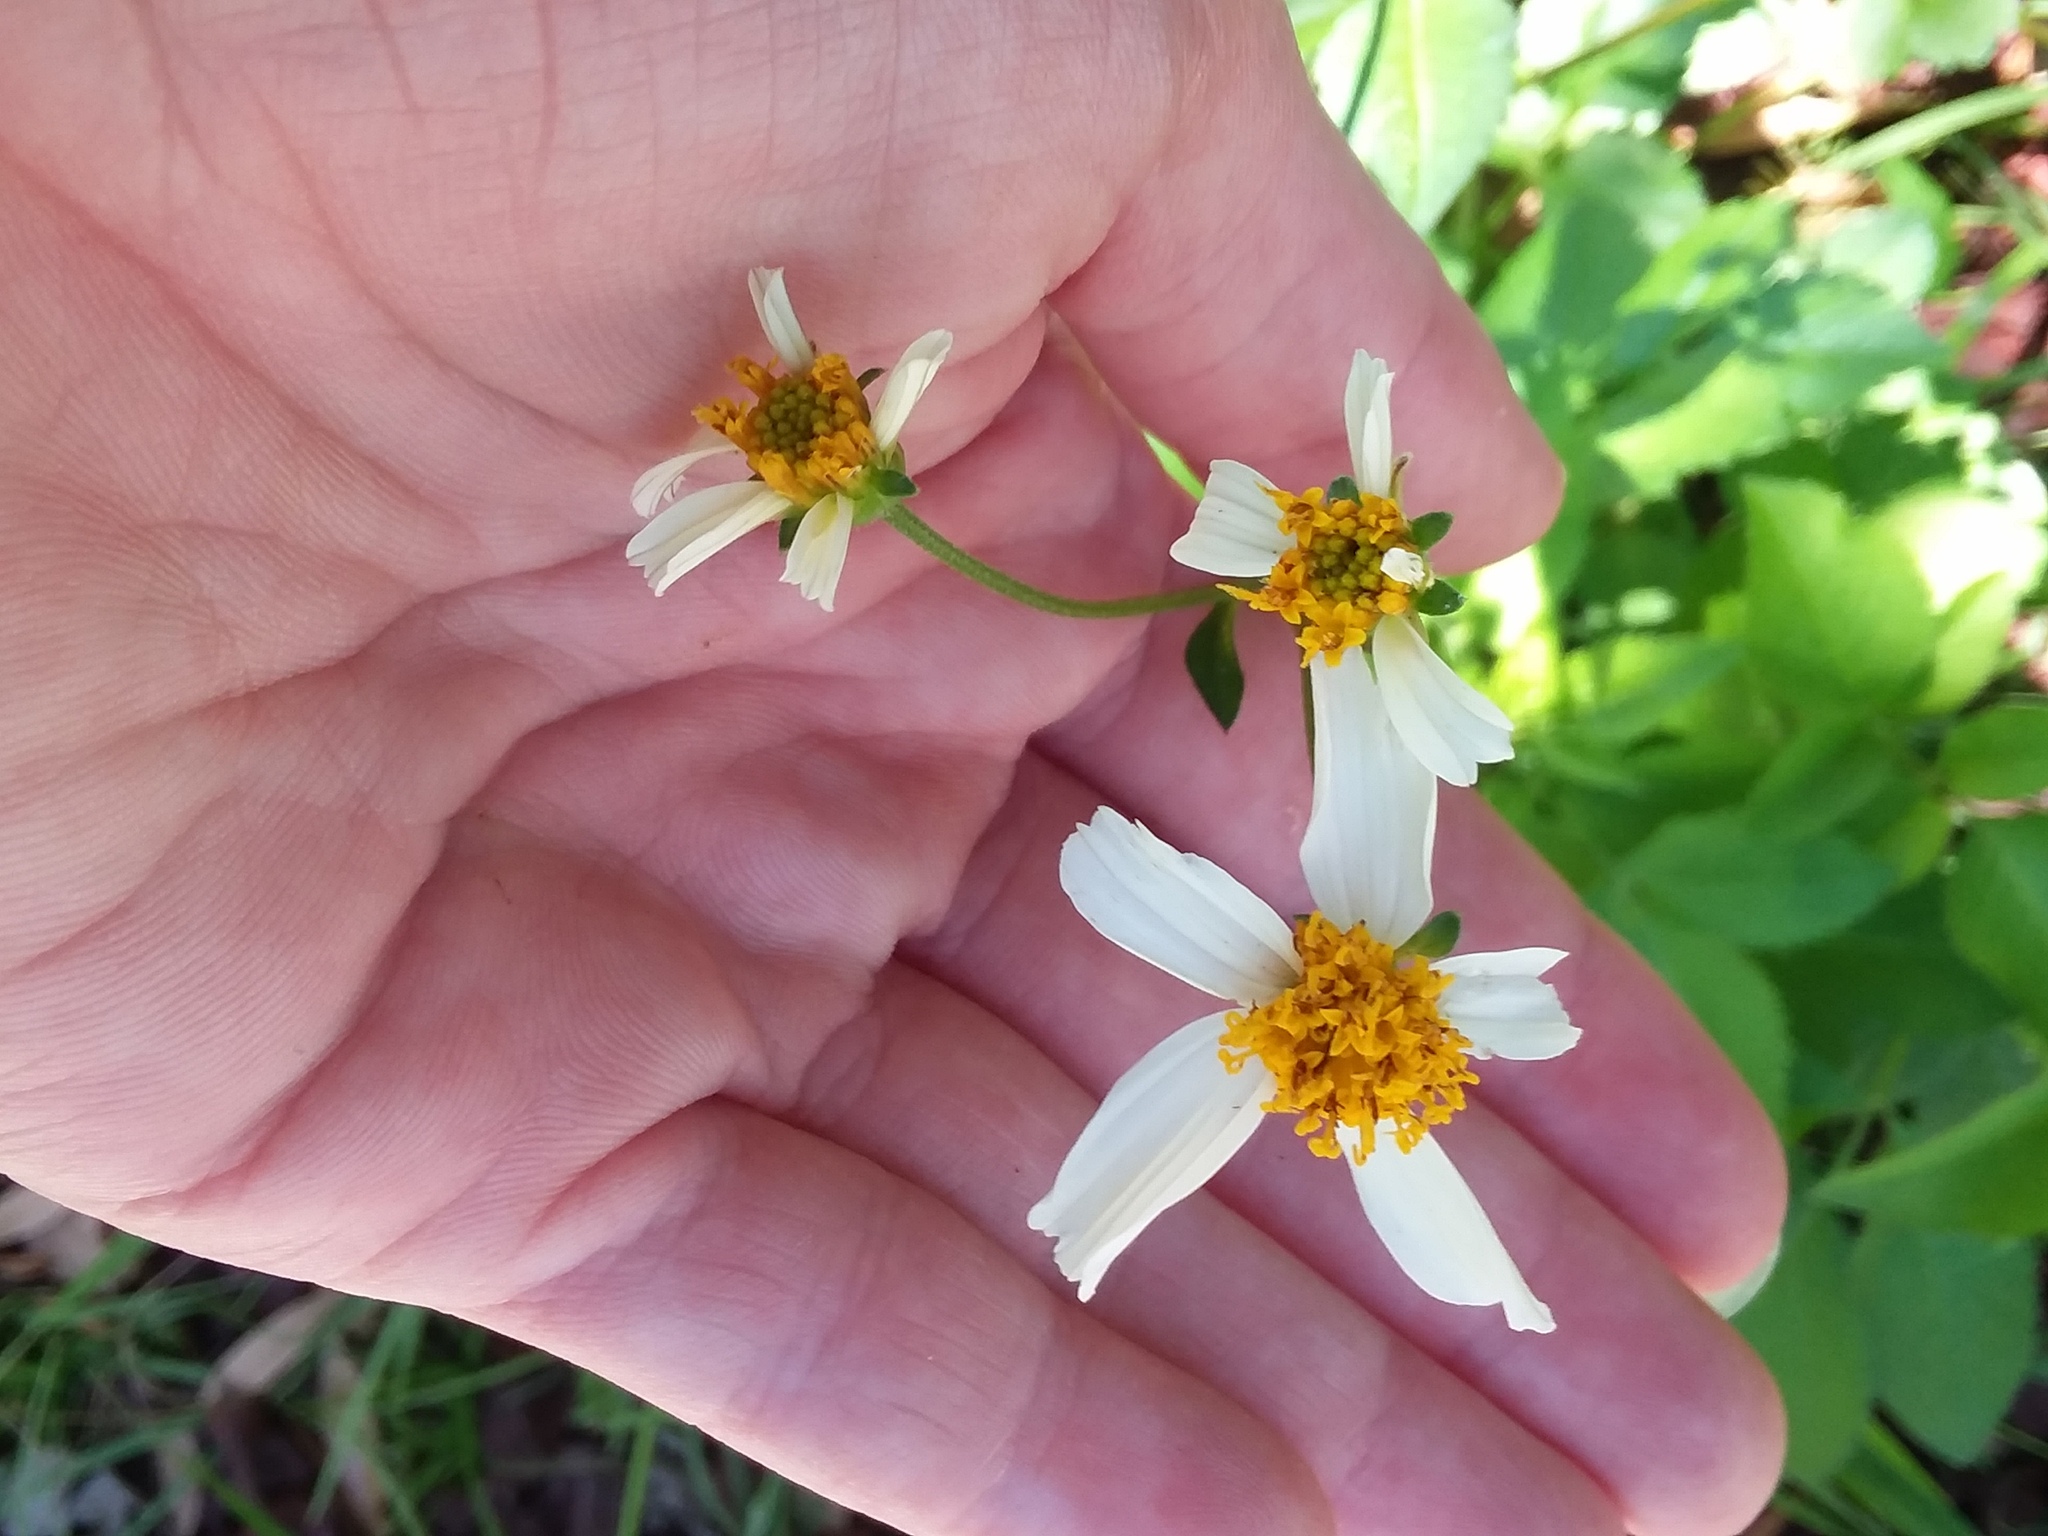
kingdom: Plantae
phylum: Tracheophyta
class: Magnoliopsida
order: Asterales
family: Asteraceae
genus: Bidens
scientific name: Bidens alba
